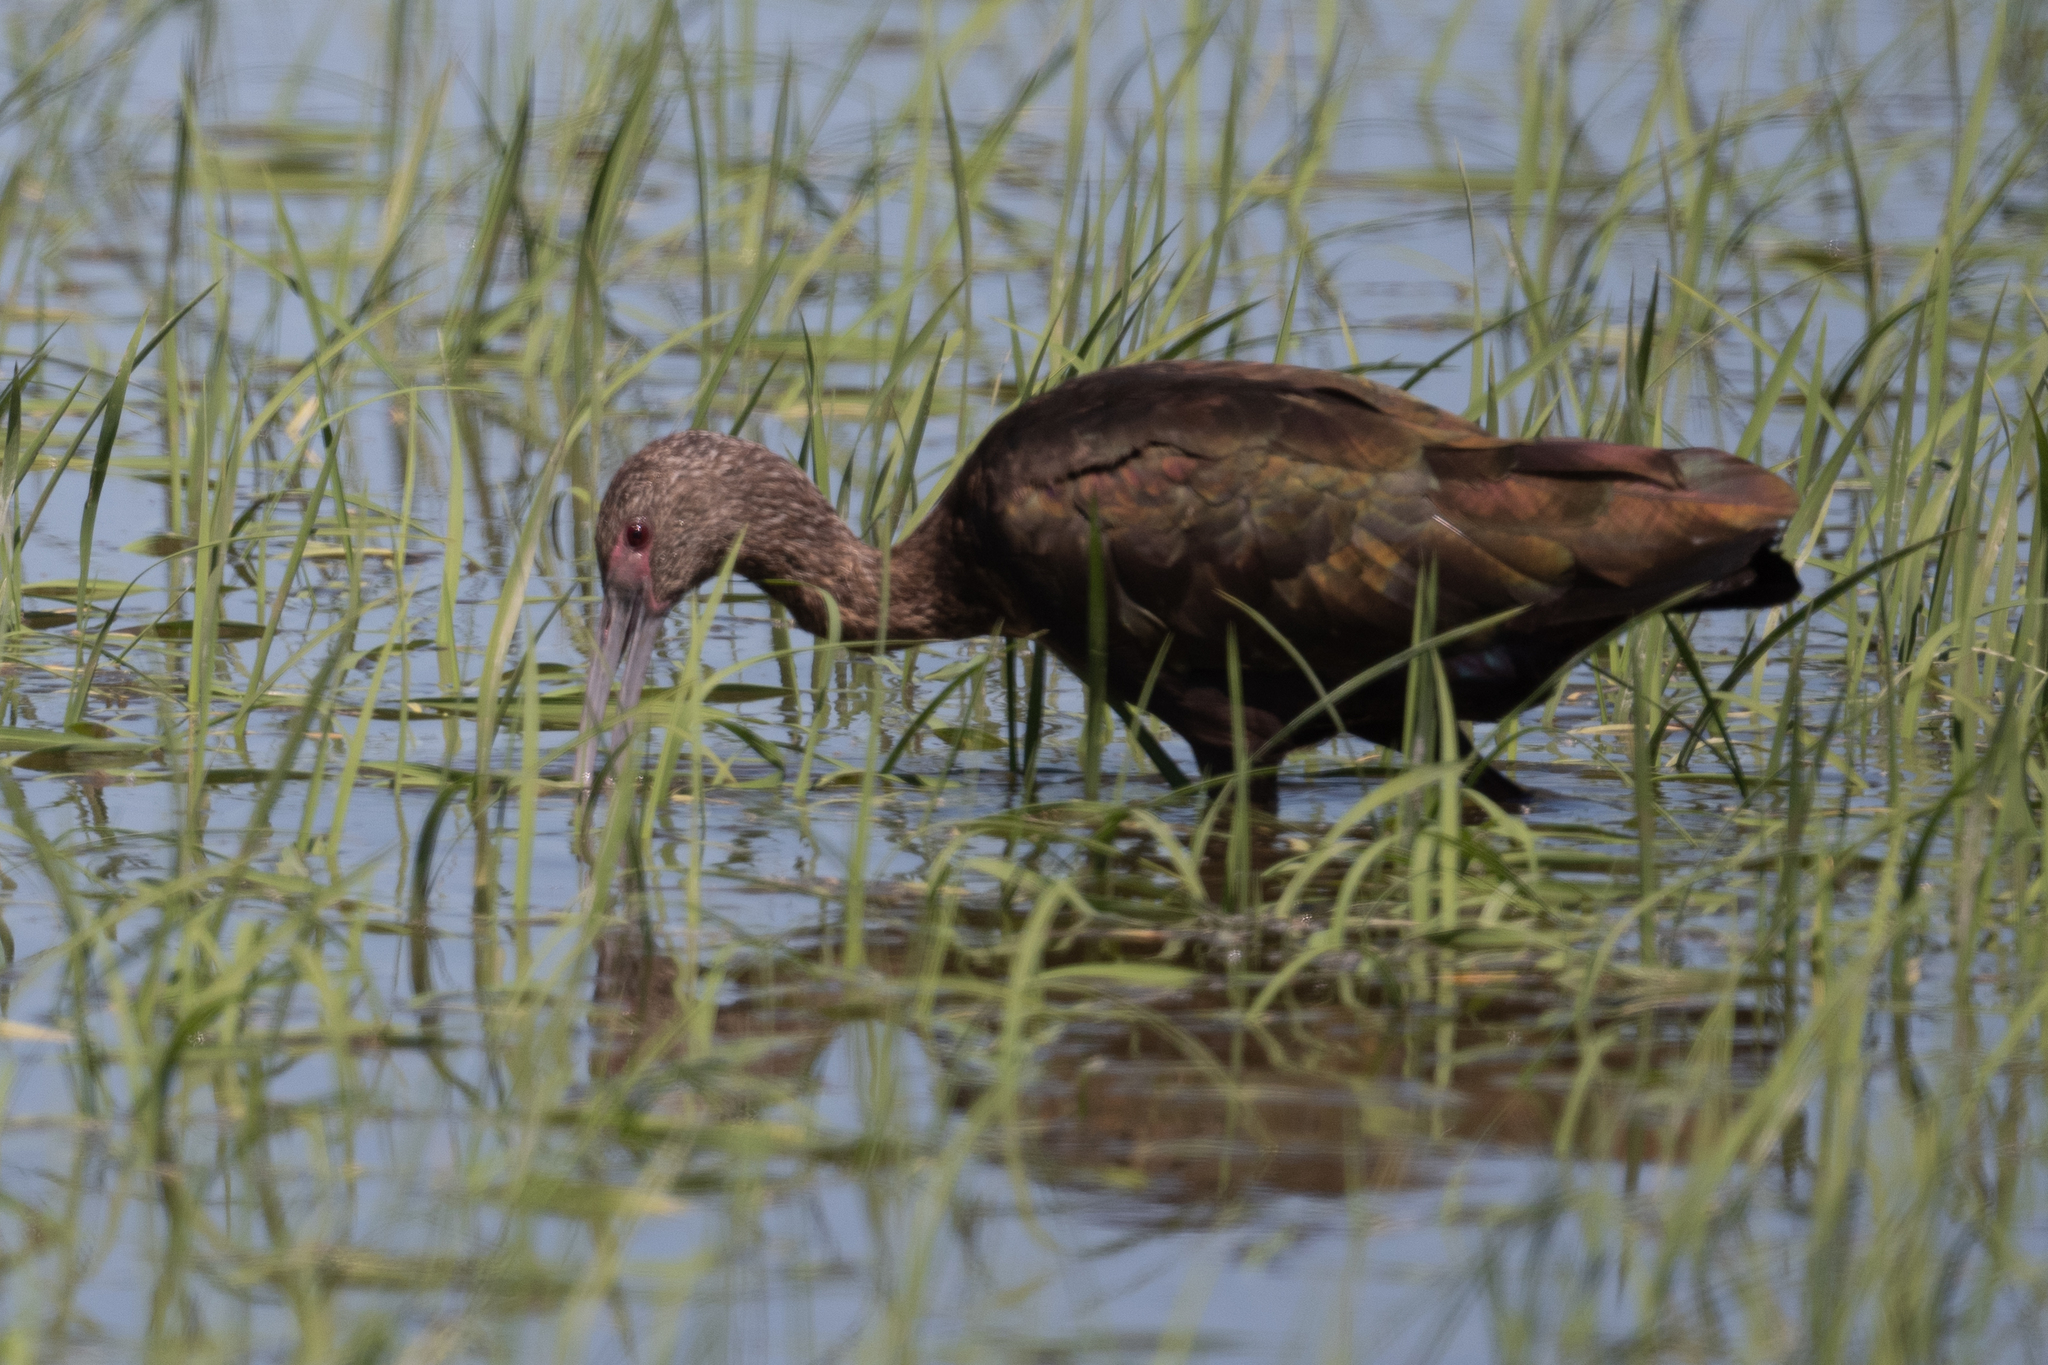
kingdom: Animalia
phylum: Chordata
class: Aves
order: Pelecaniformes
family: Threskiornithidae
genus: Plegadis
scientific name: Plegadis chihi
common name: White-faced ibis
